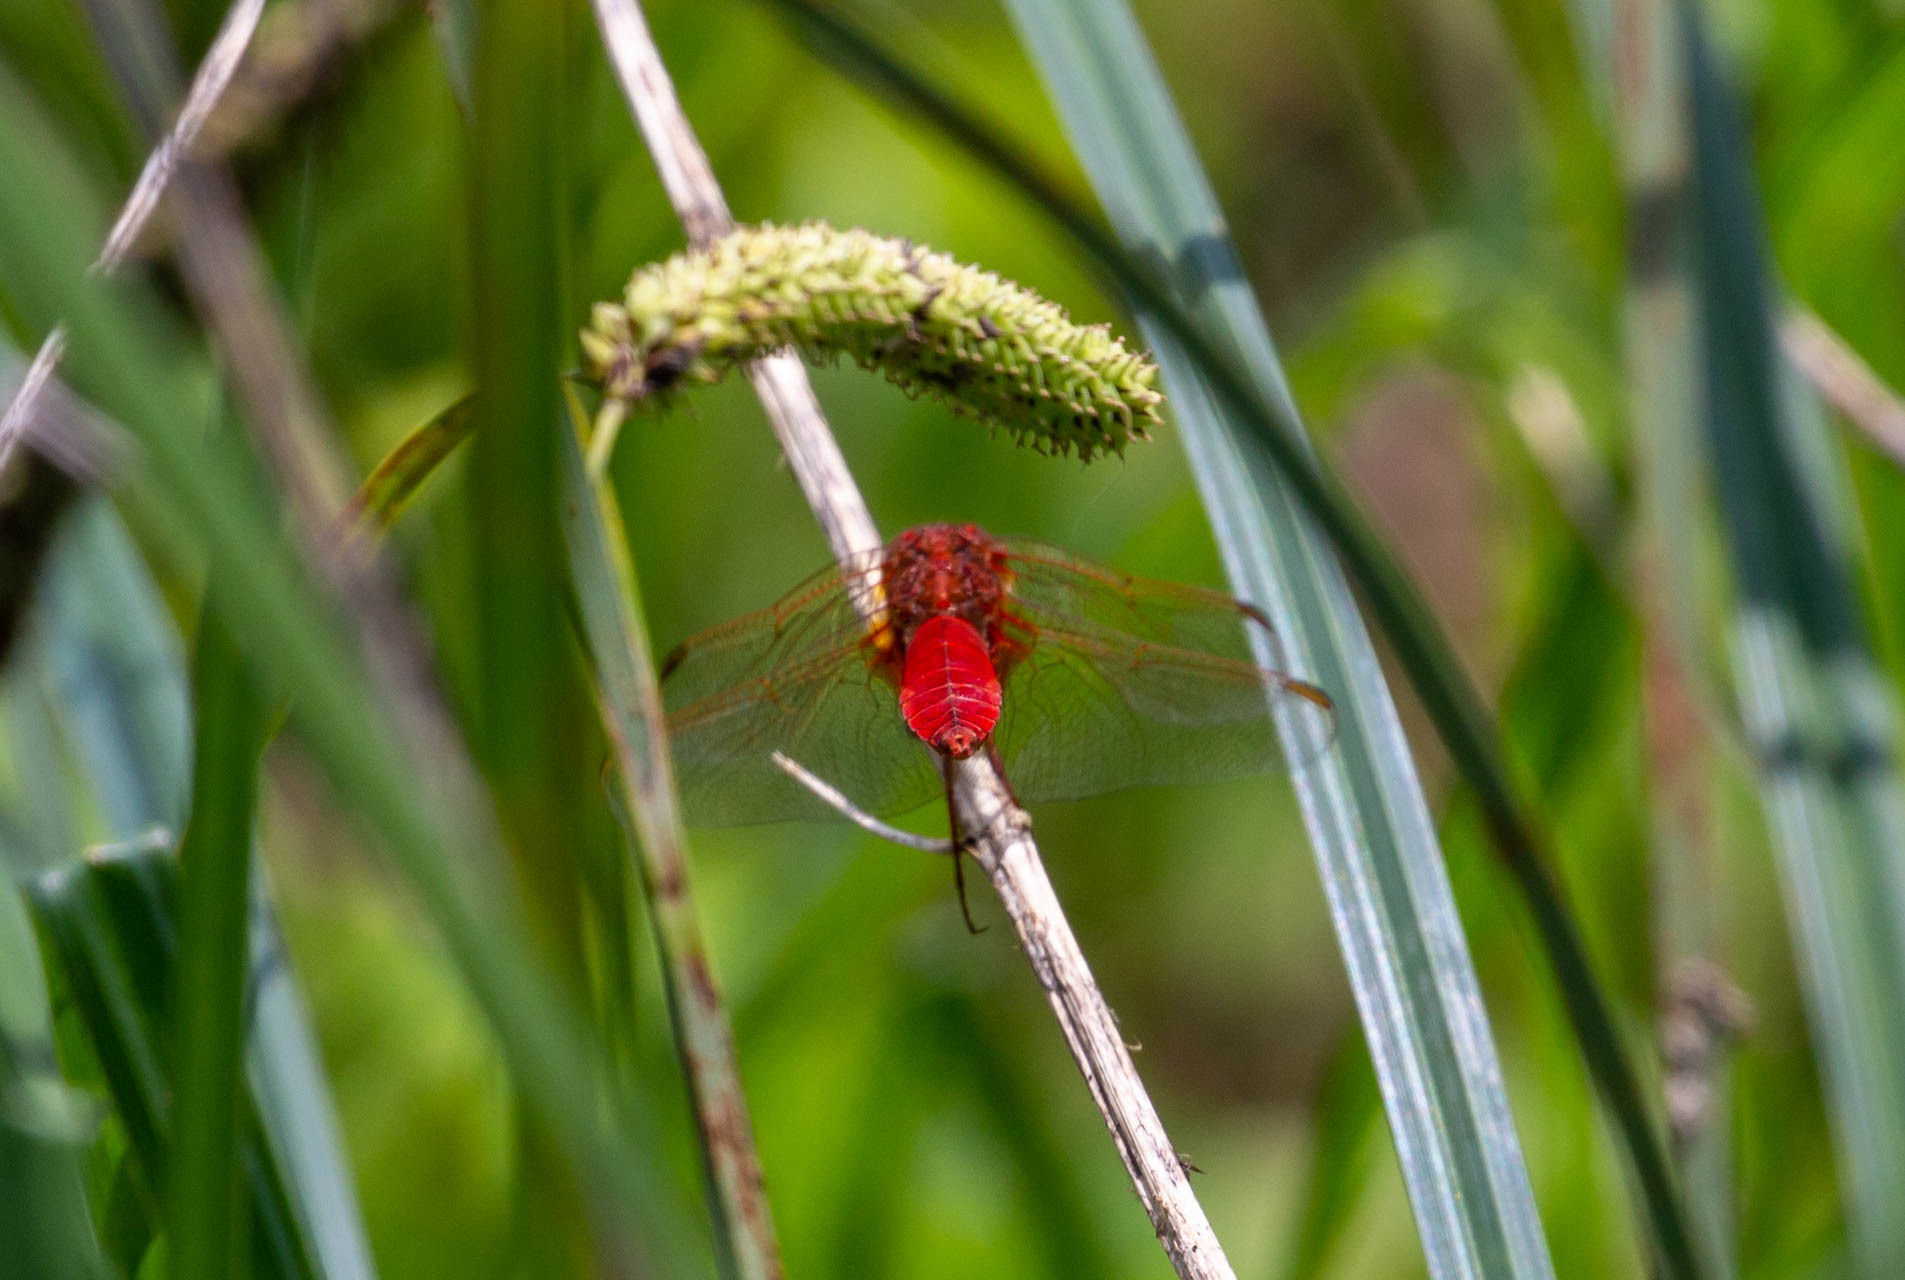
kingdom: Animalia
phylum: Arthropoda
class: Insecta
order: Odonata
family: Libellulidae
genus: Crocothemis
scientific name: Crocothemis erythraea
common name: Scarlet dragonfly
